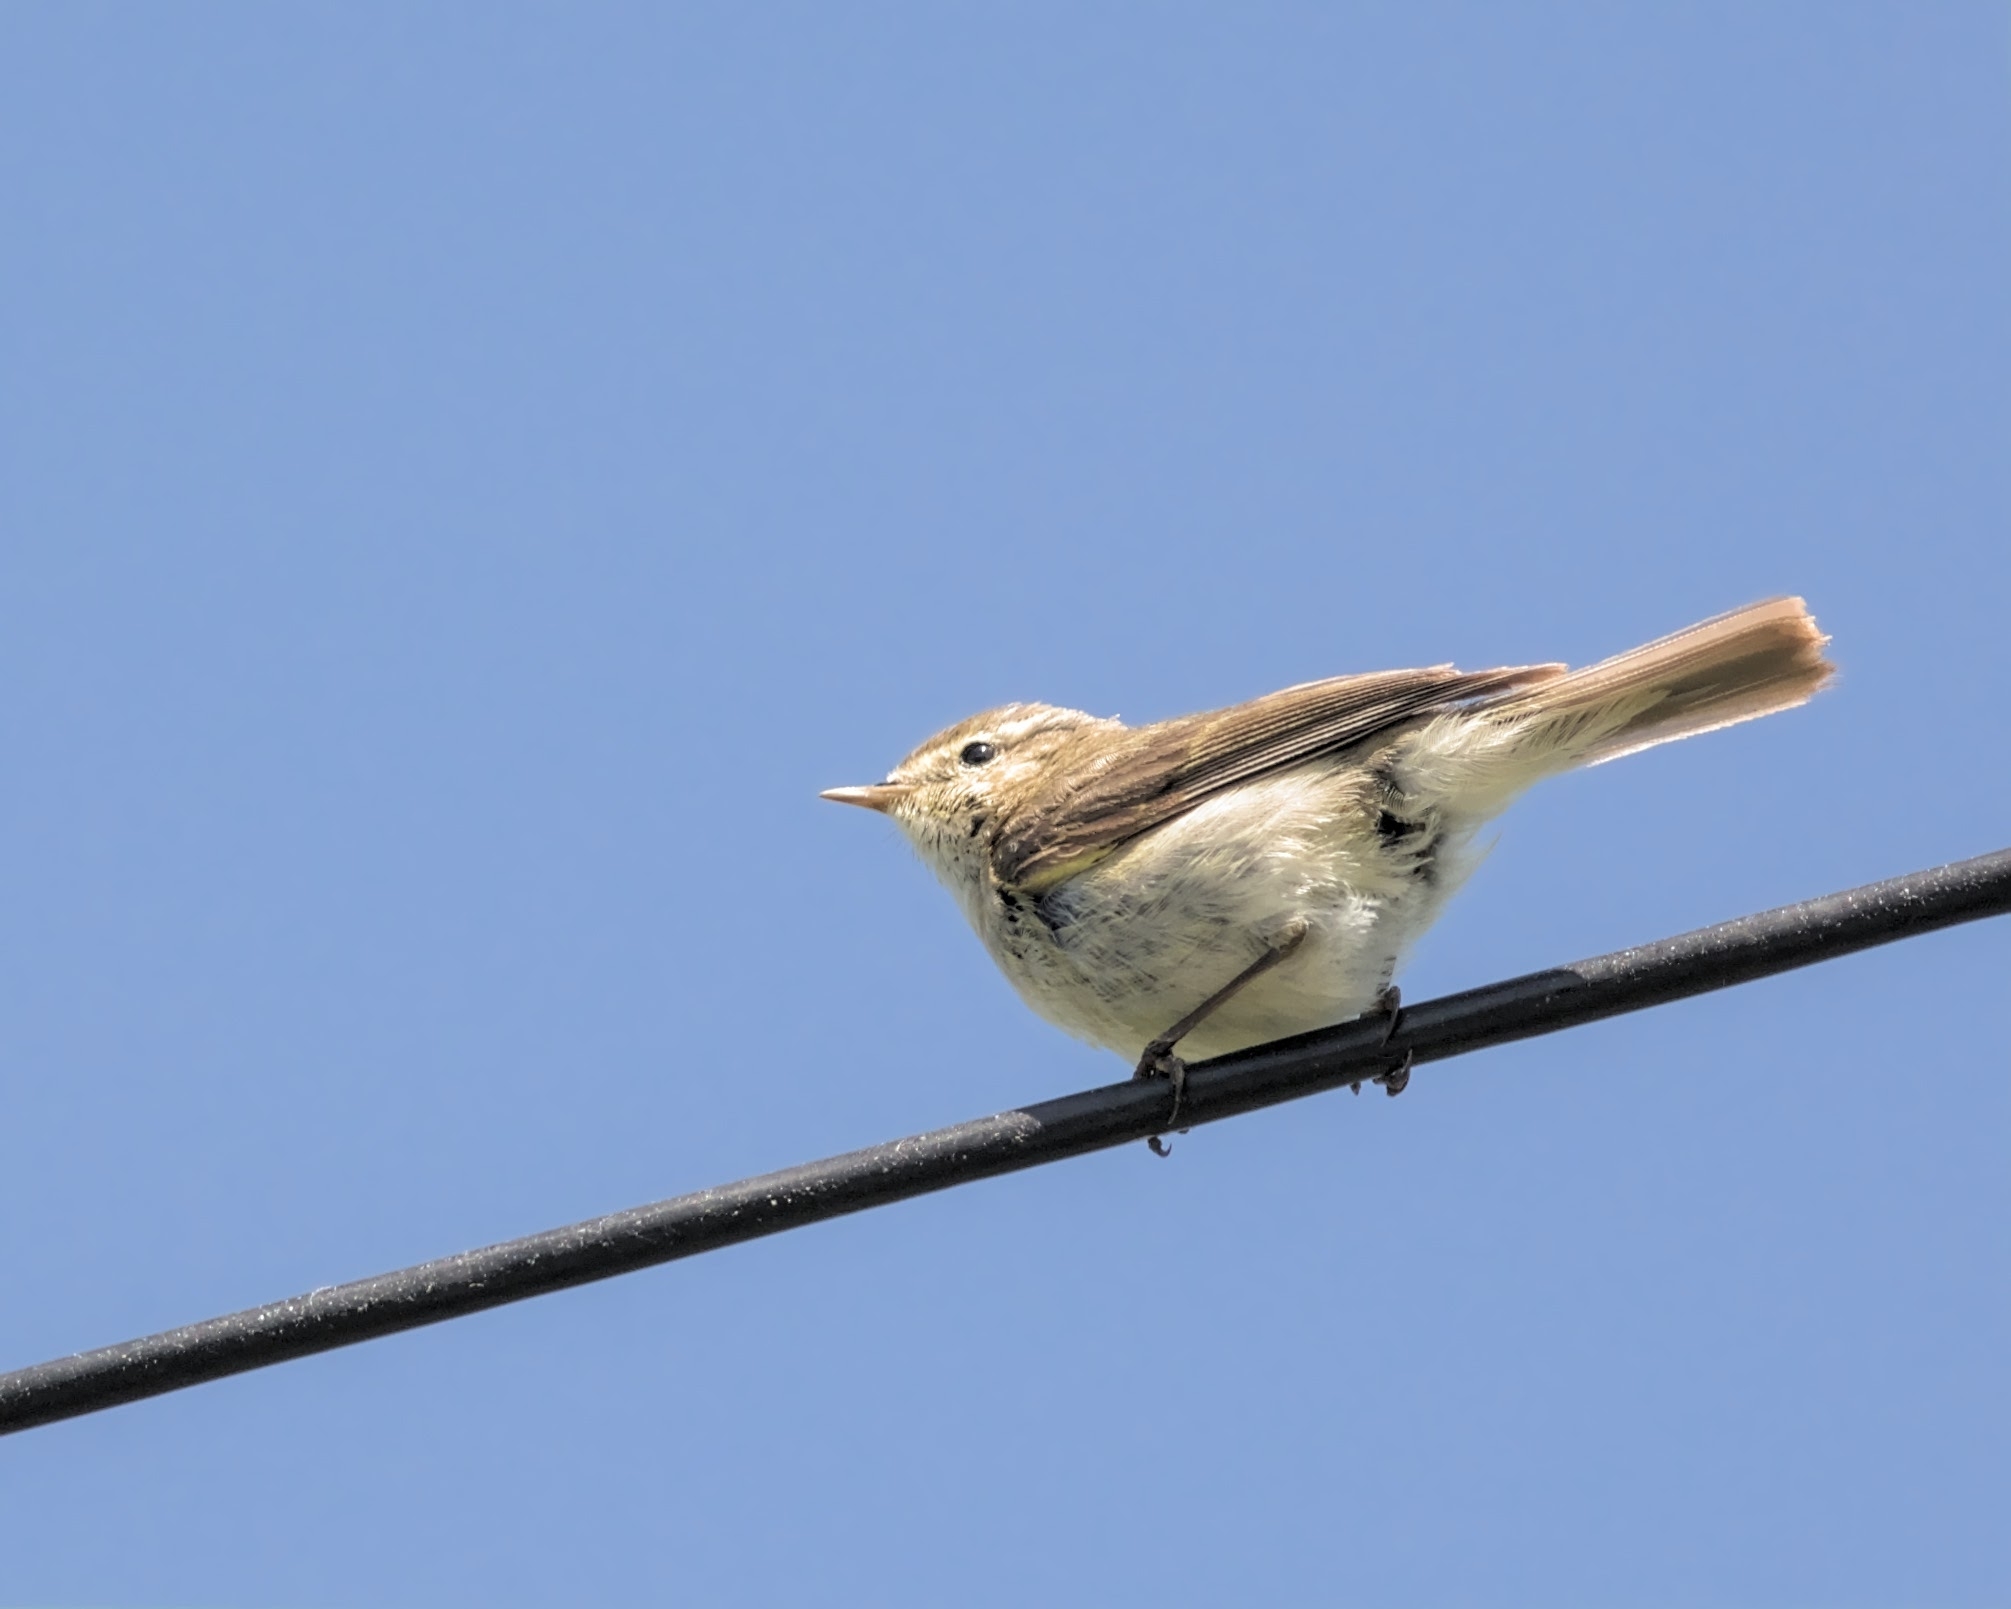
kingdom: Animalia
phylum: Chordata
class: Aves
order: Passeriformes
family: Phylloscopidae
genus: Phylloscopus
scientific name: Phylloscopus collybita
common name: Common chiffchaff
